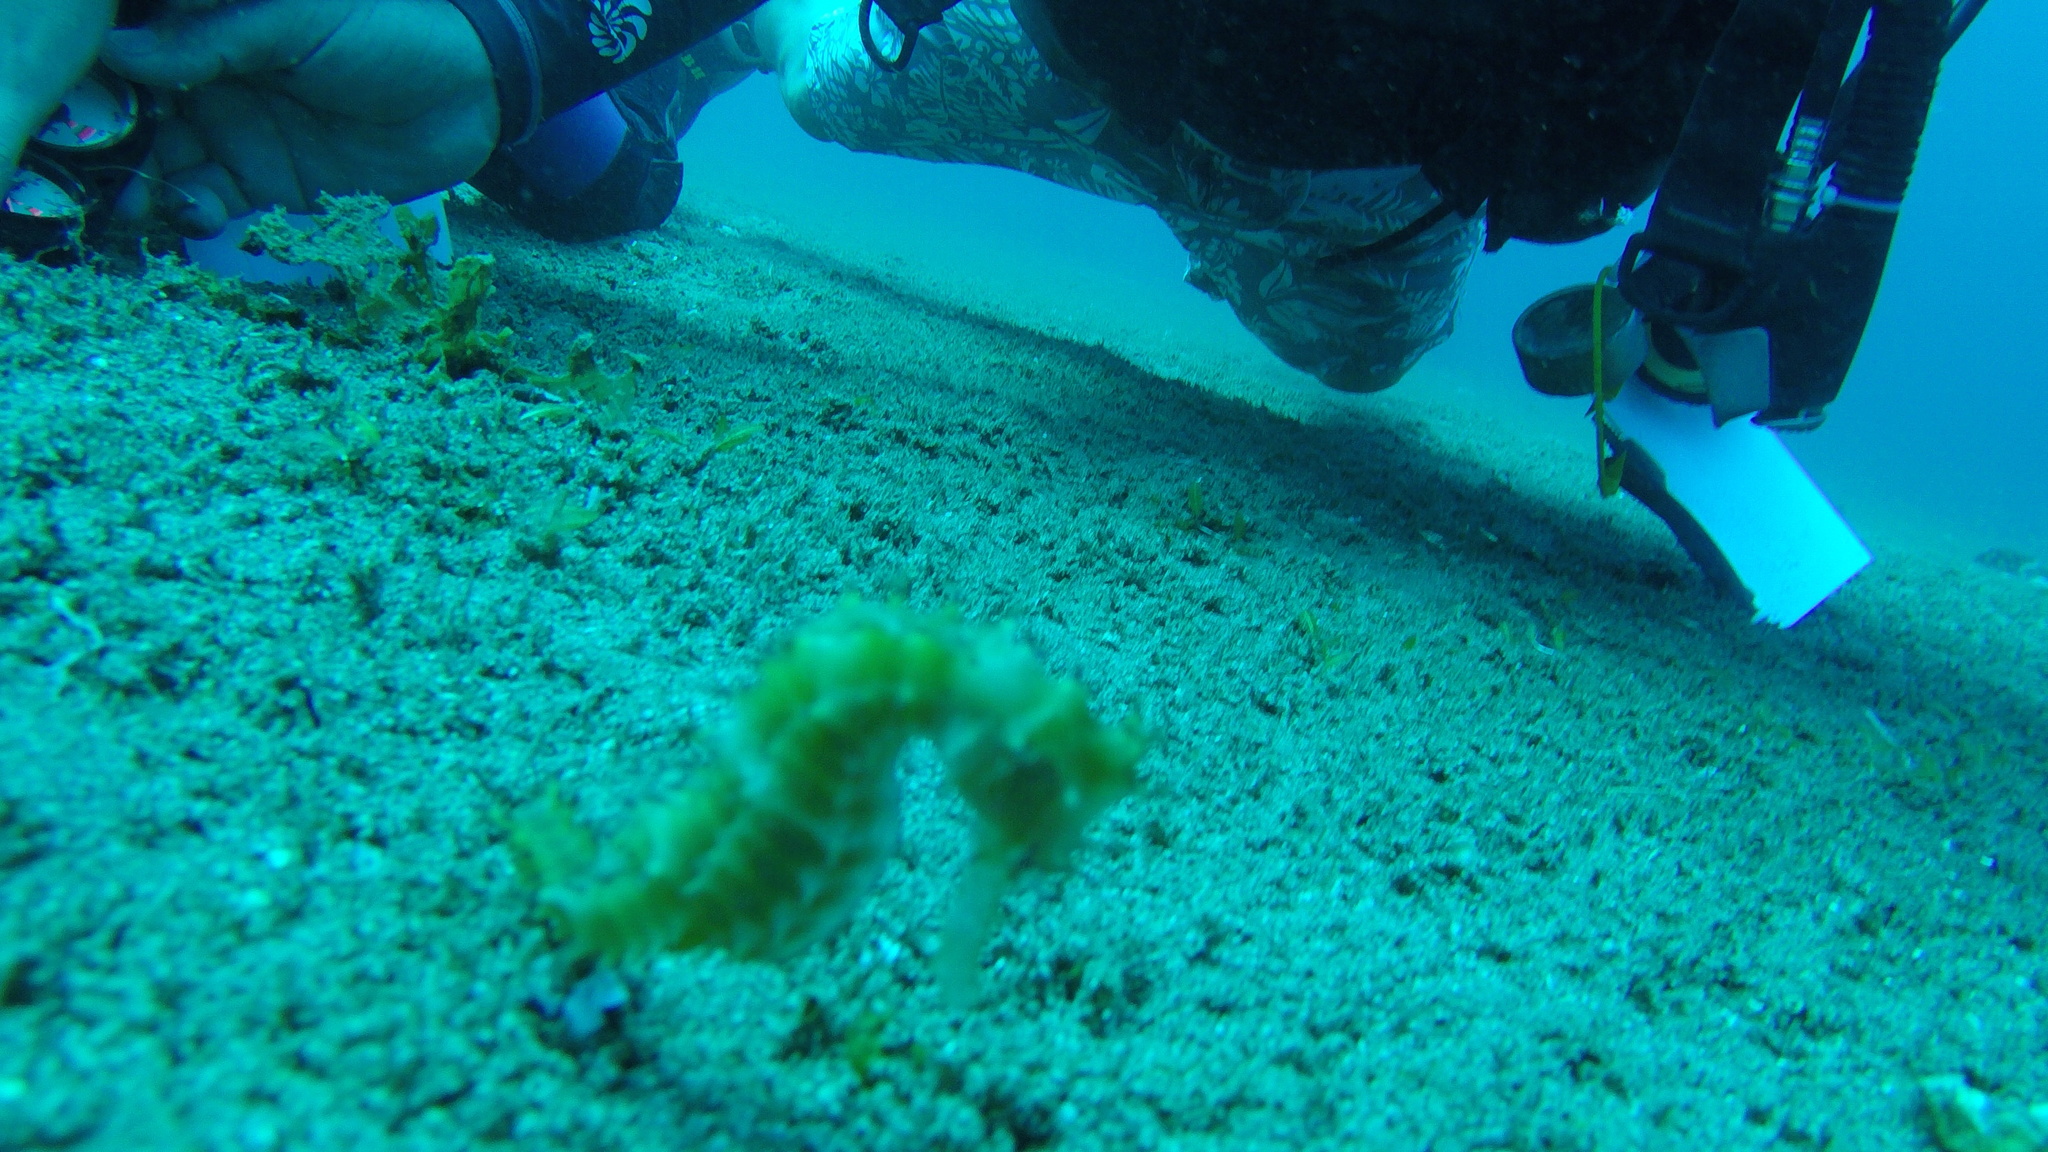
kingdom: Animalia
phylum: Chordata
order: Syngnathiformes
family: Syngnathidae
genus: Hippocampus
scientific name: Hippocampus histrix
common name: Longspine seahorse
